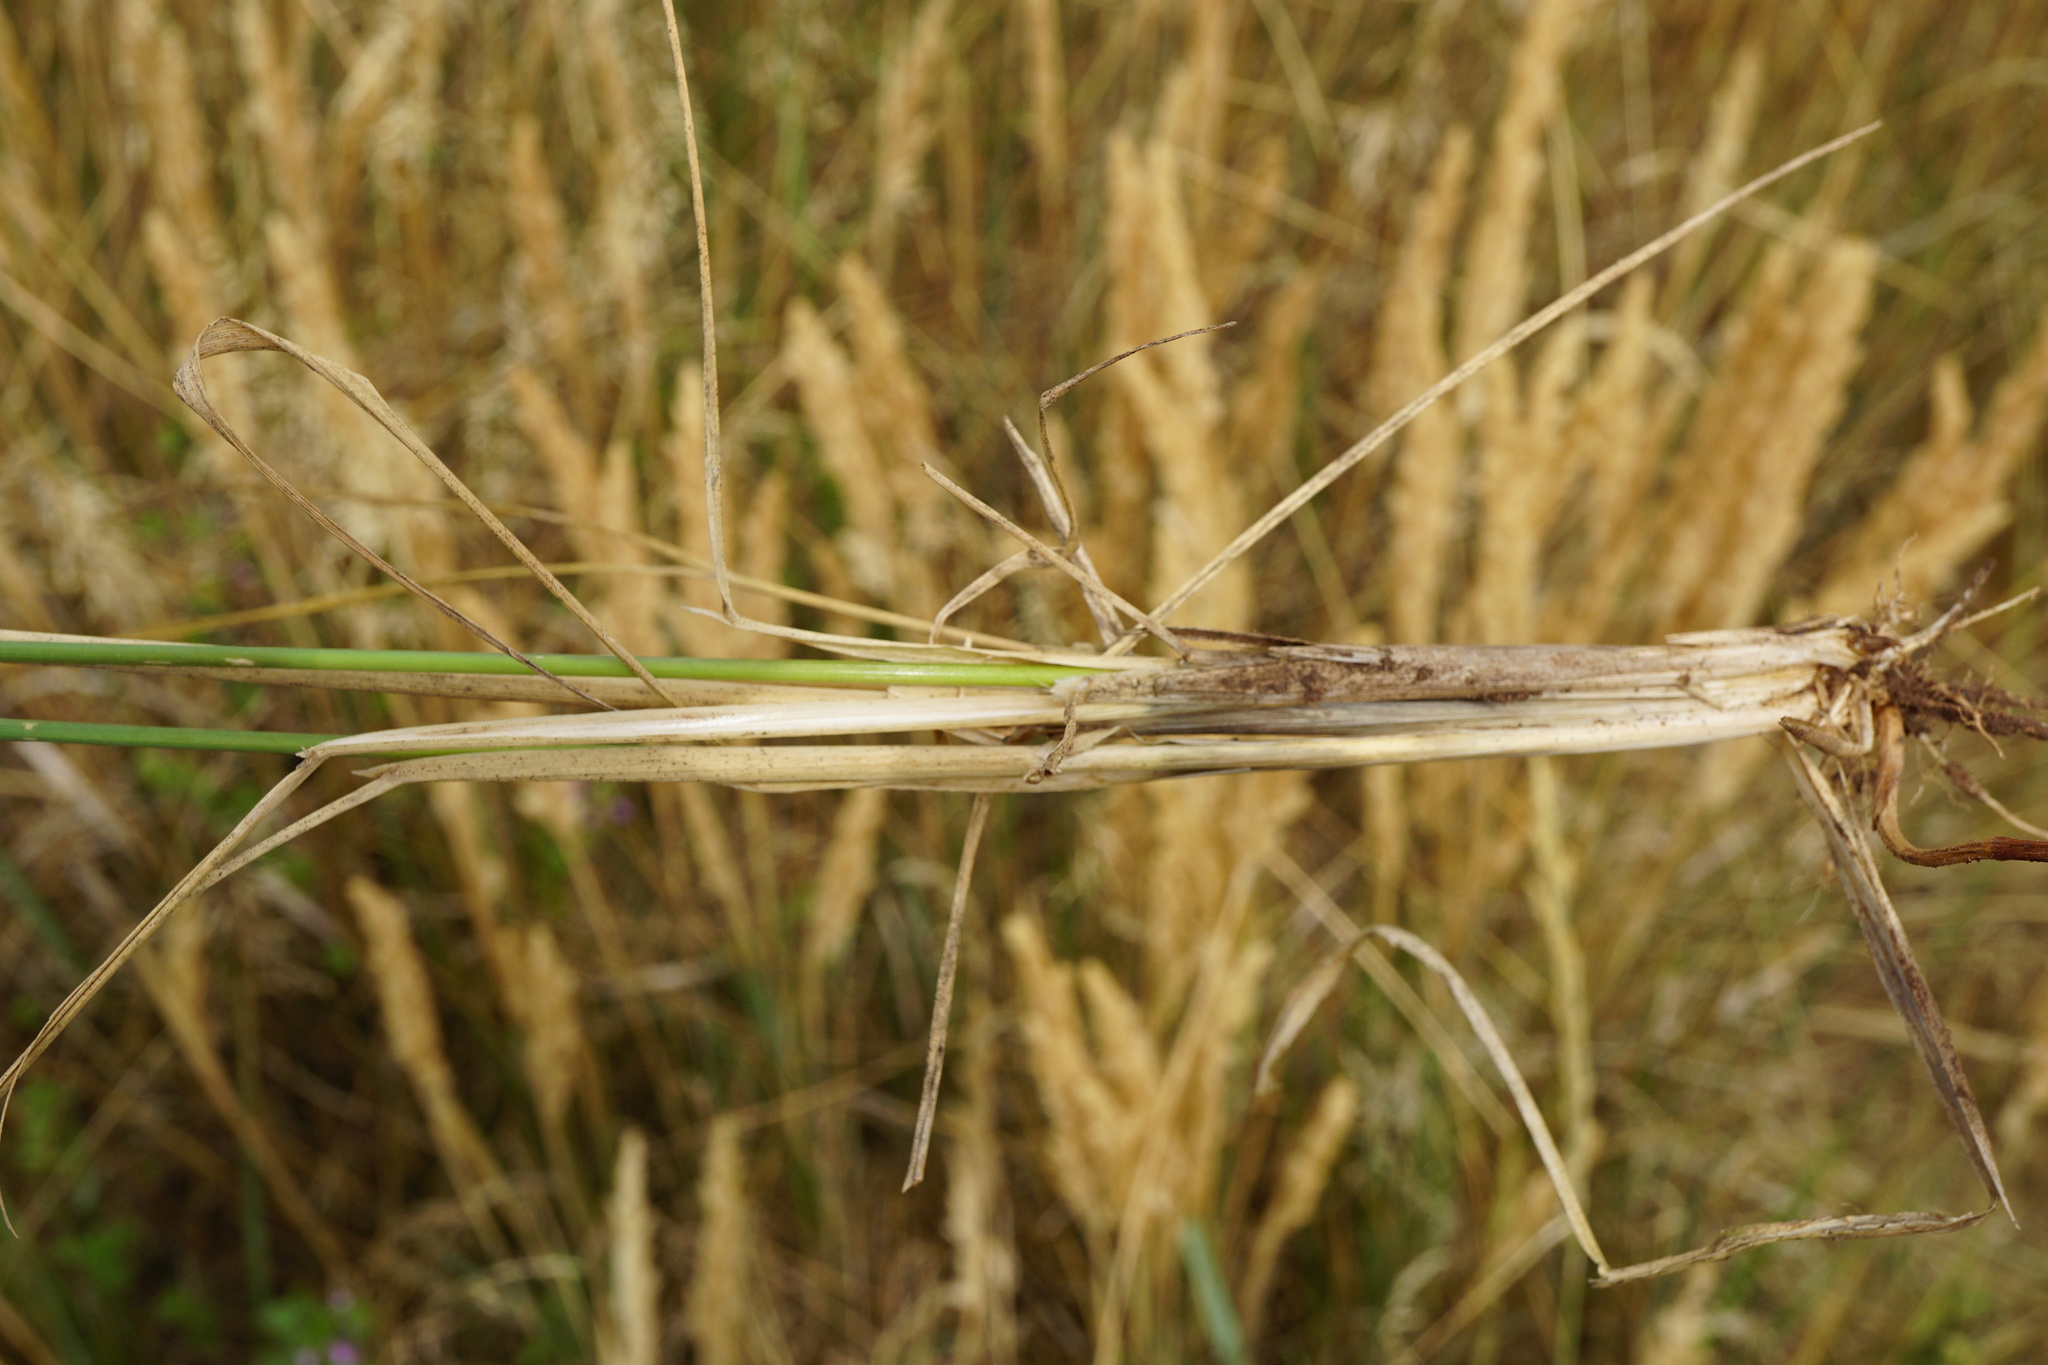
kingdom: Plantae
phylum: Tracheophyta
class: Liliopsida
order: Poales
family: Poaceae
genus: Calamagrostis
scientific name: Calamagrostis epigejos
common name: Wood small-reed
